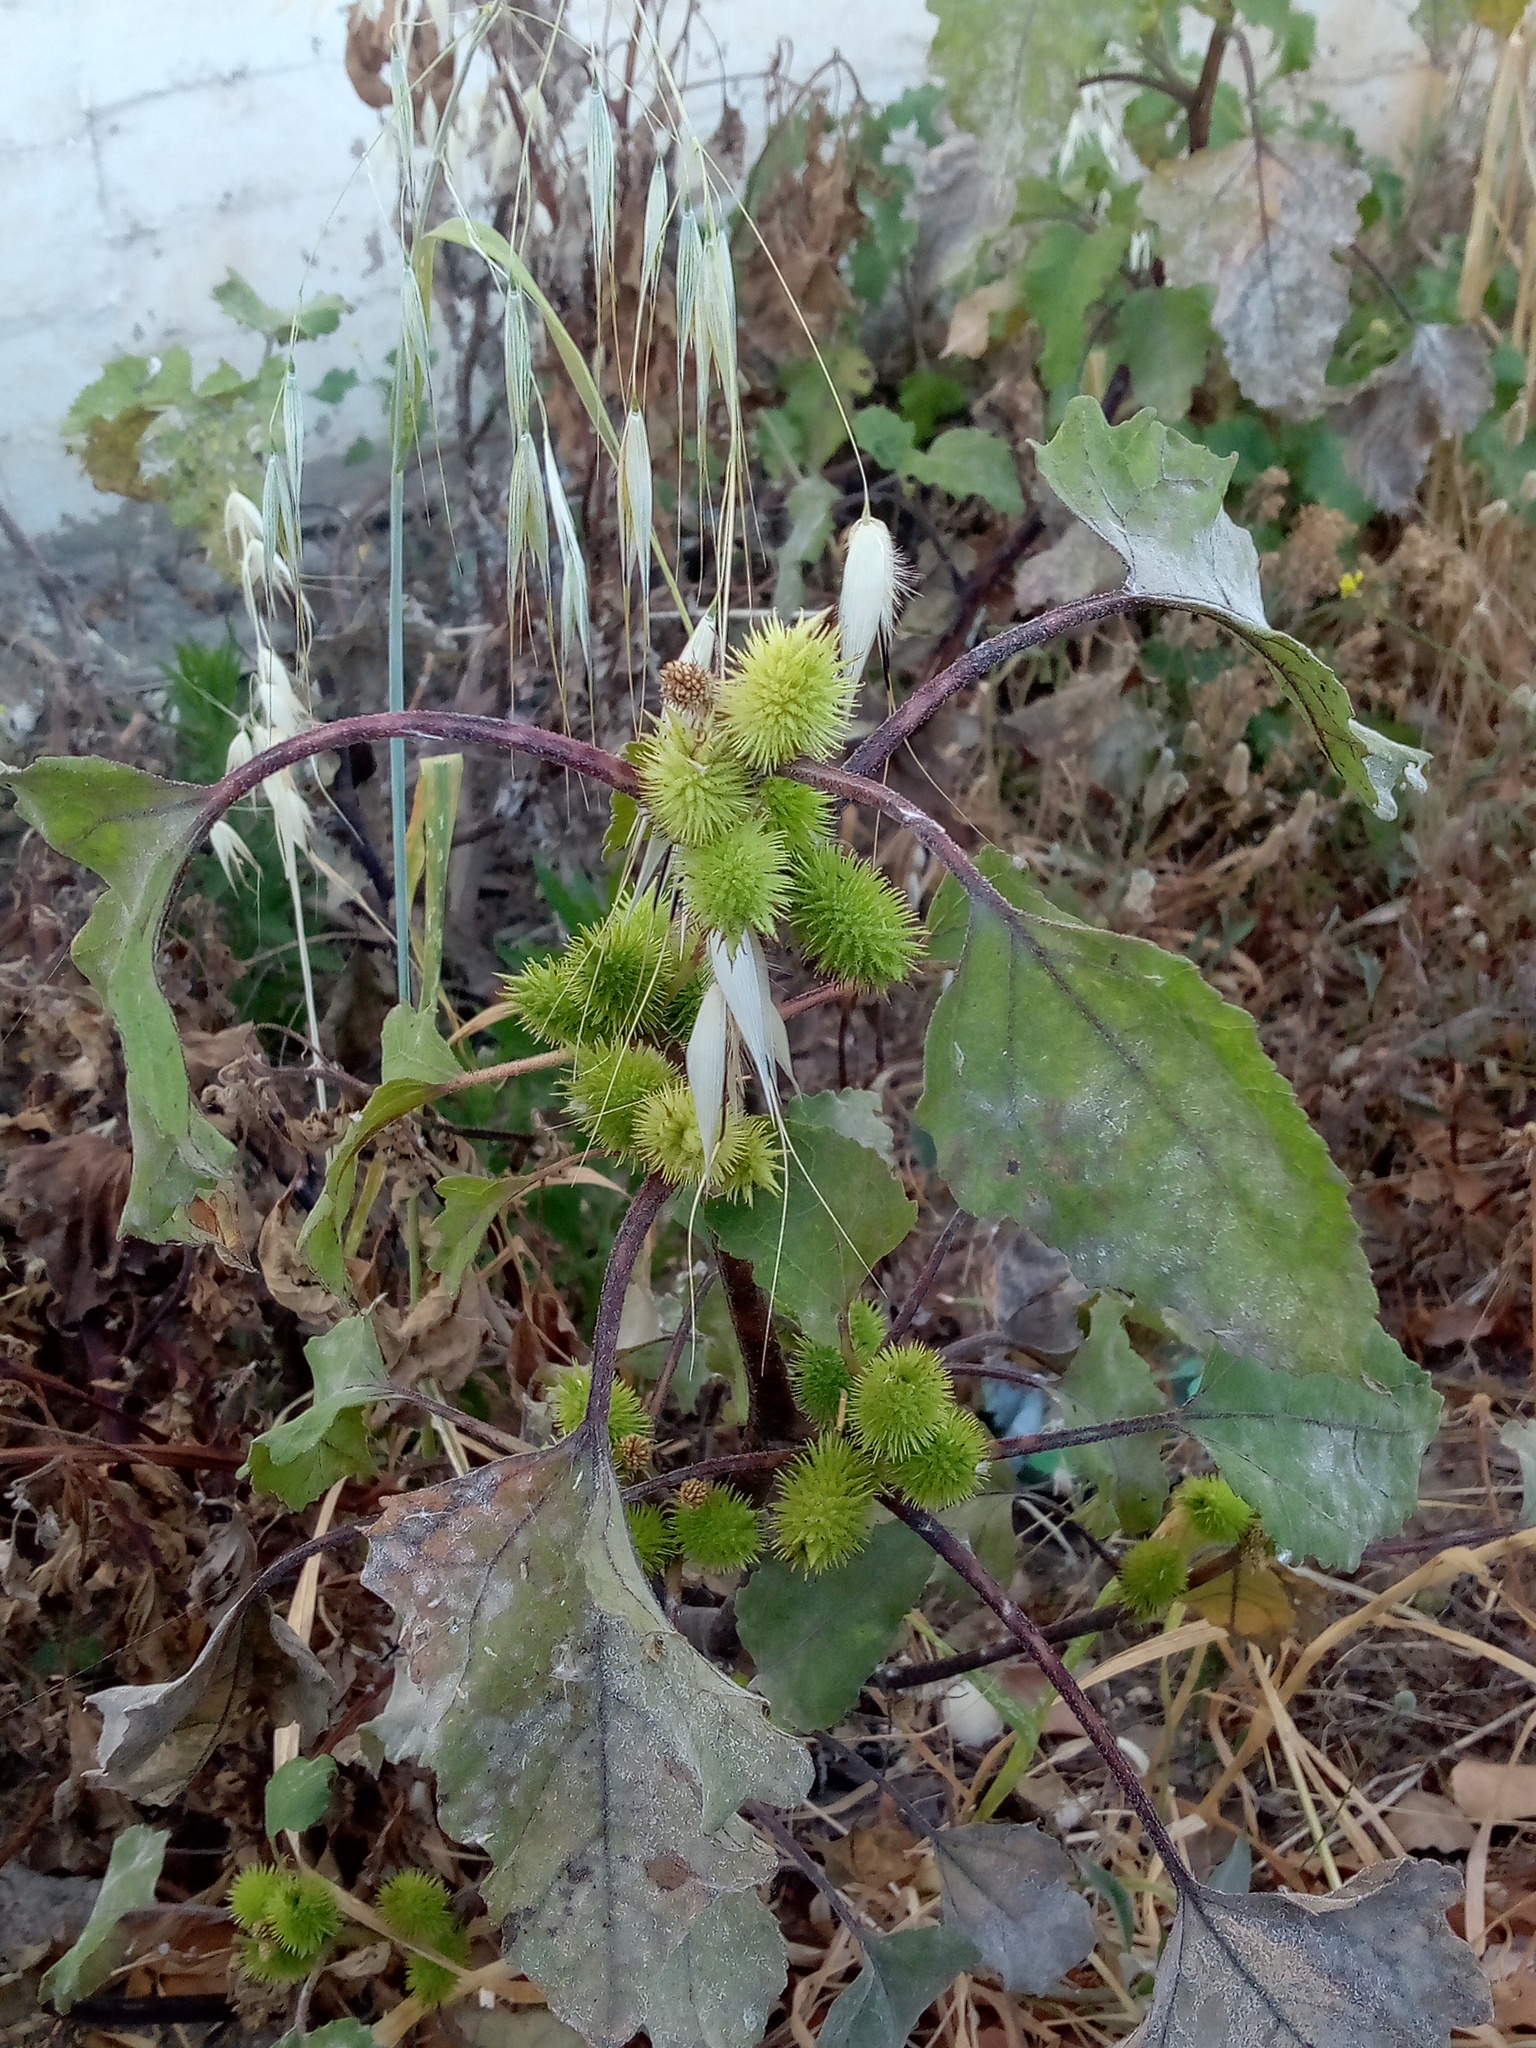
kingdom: Plantae
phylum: Tracheophyta
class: Magnoliopsida
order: Asterales
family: Asteraceae
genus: Xanthium
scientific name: Xanthium orientale
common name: Californian burr
